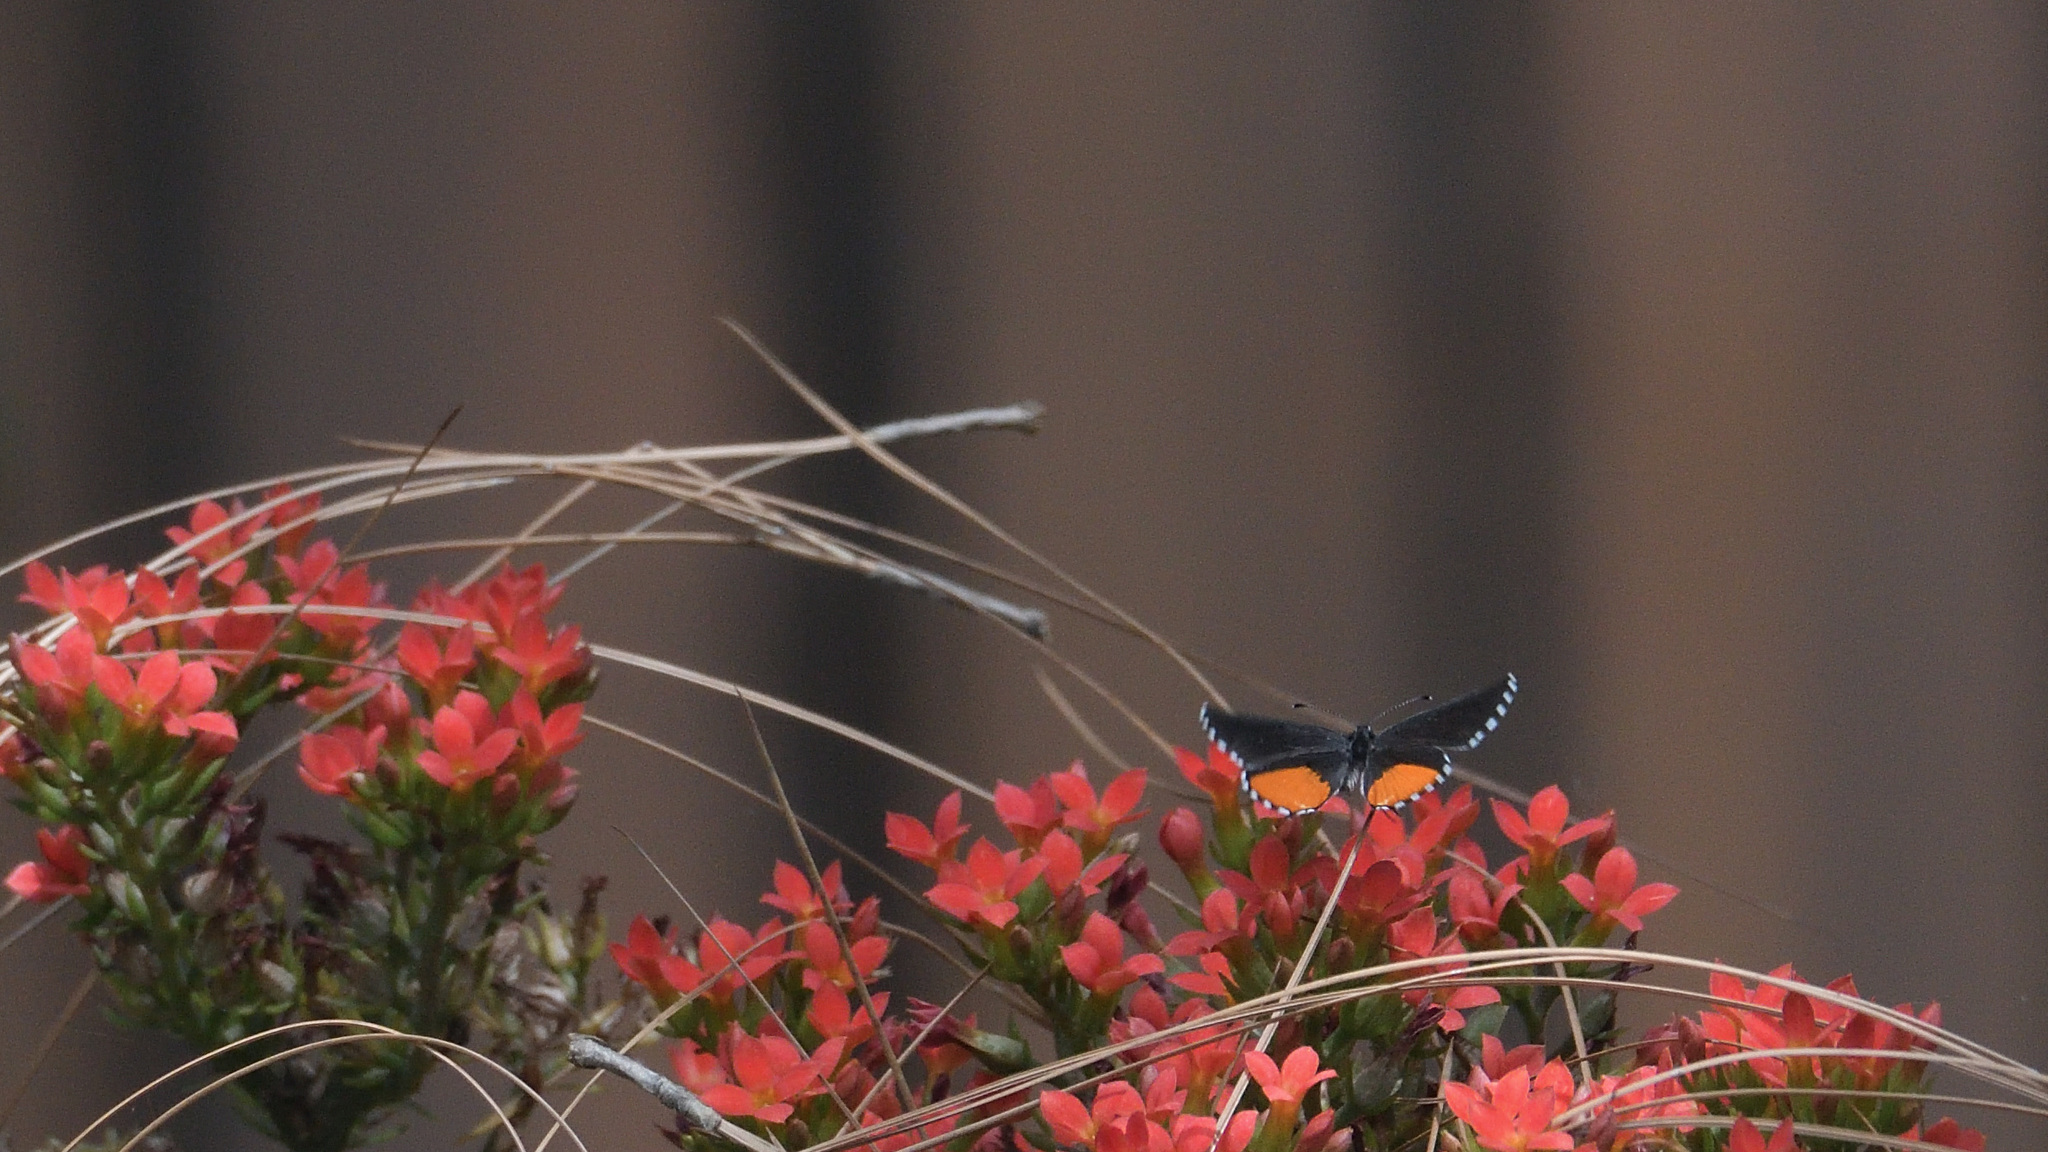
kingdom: Animalia
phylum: Arthropoda
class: Insecta
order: Lepidoptera
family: Lycaenidae
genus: Talicada
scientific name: Talicada nyseus
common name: Red pierrot
